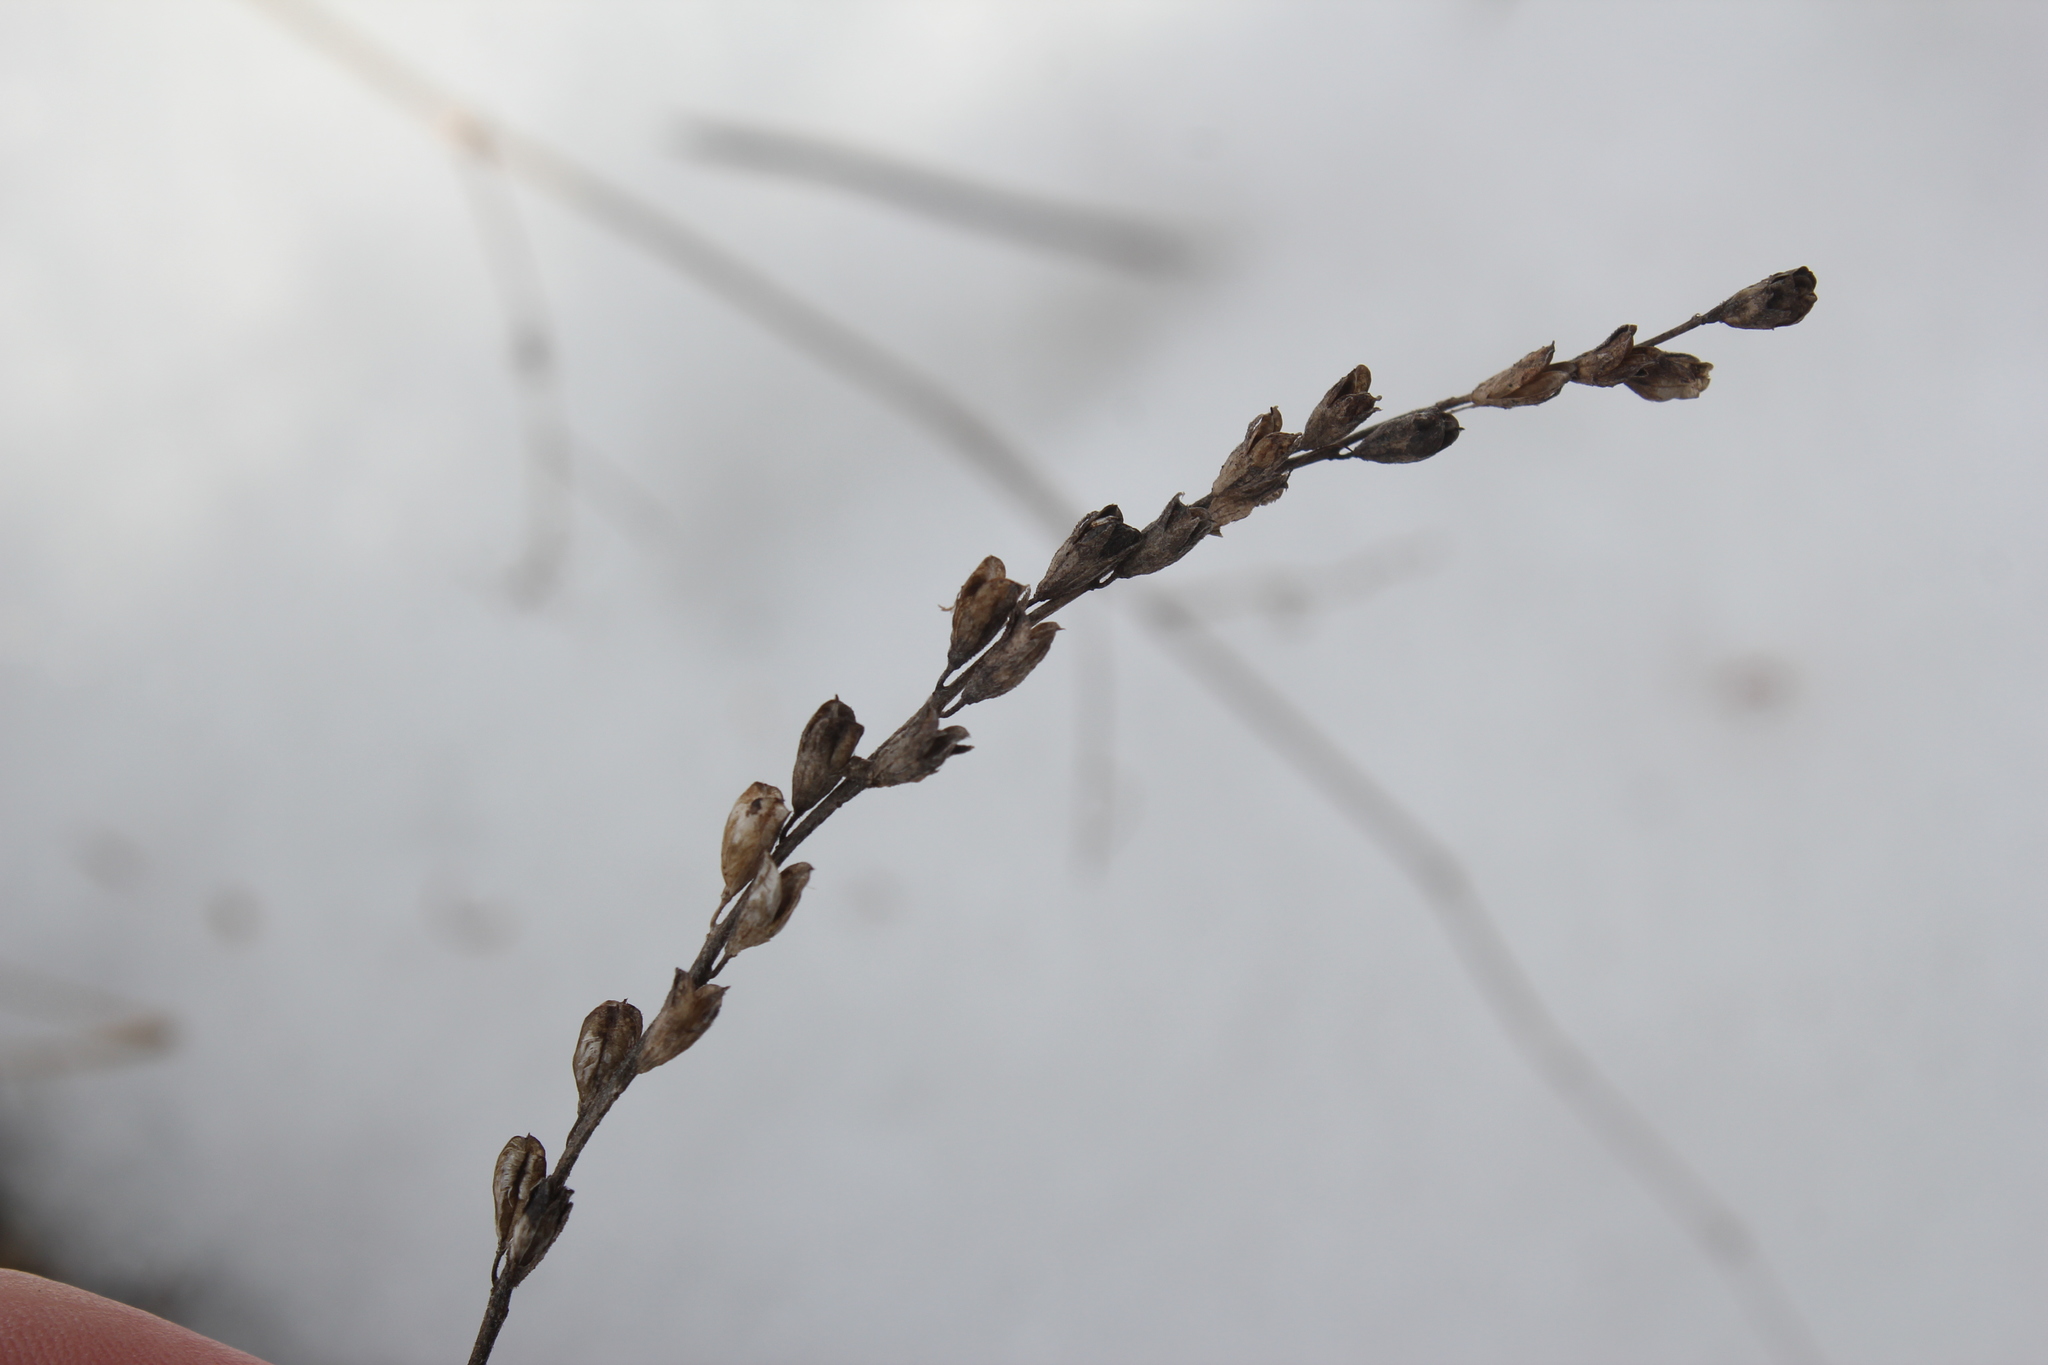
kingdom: Plantae
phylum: Tracheophyta
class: Magnoliopsida
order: Lamiales
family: Orobanchaceae
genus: Odontites
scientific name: Odontites vulgaris
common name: Broomrape
